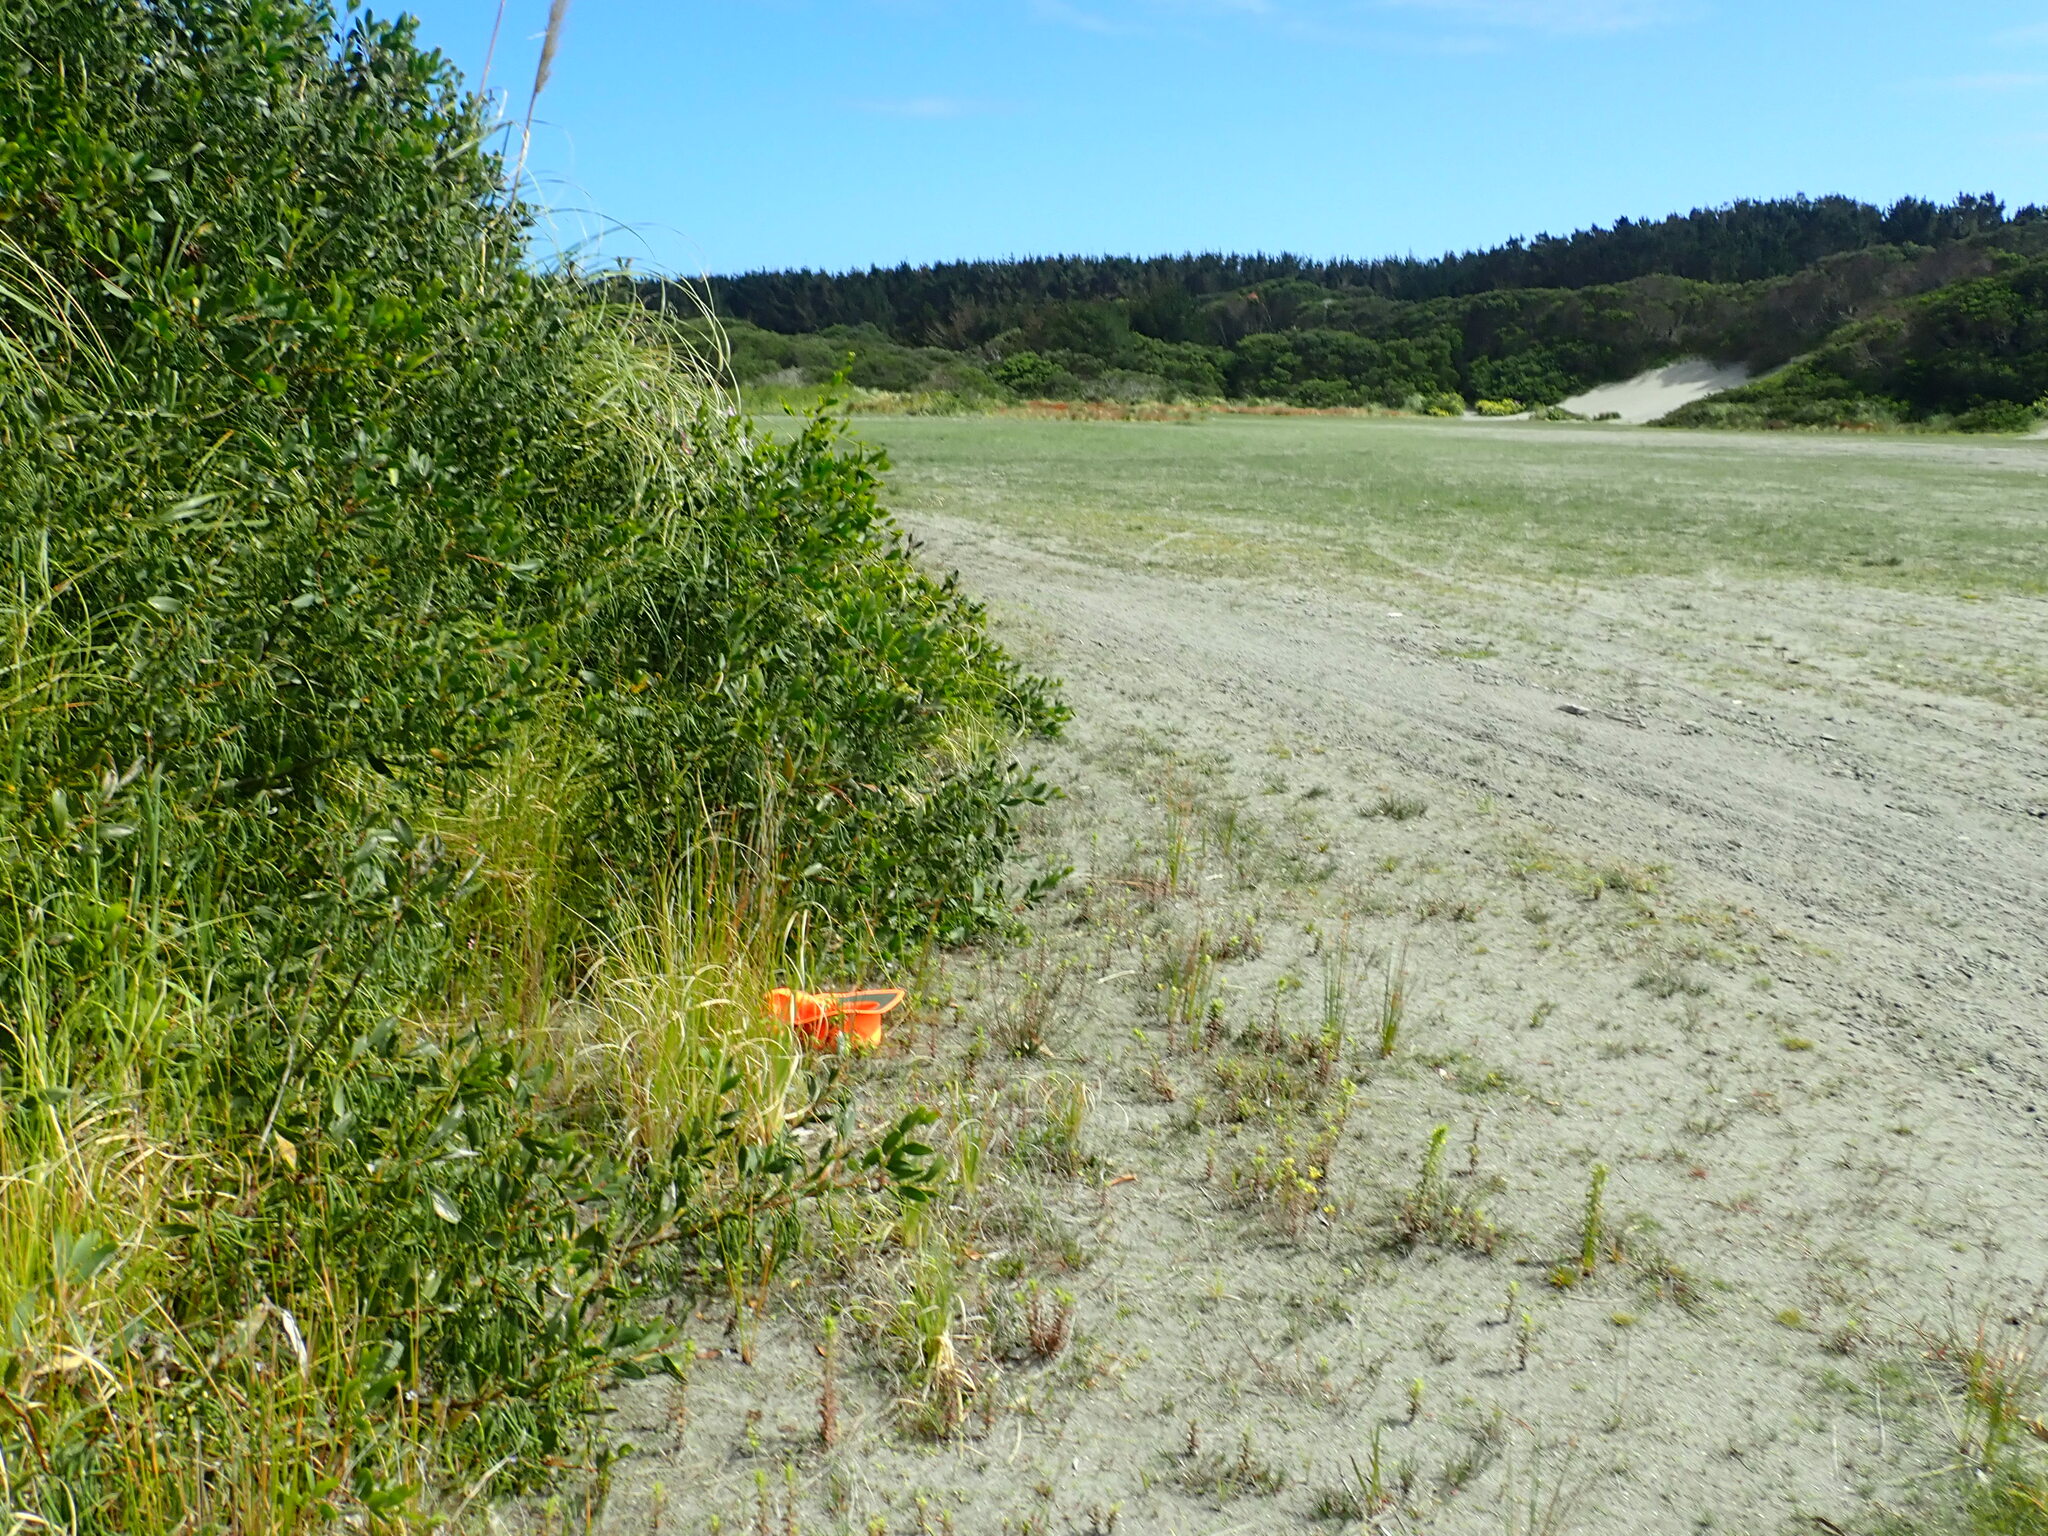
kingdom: Plantae
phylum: Tracheophyta
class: Liliopsida
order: Asparagales
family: Iridaceae
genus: Sisyrinchium
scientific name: Sisyrinchium micranthum
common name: Bermuda pigroot
